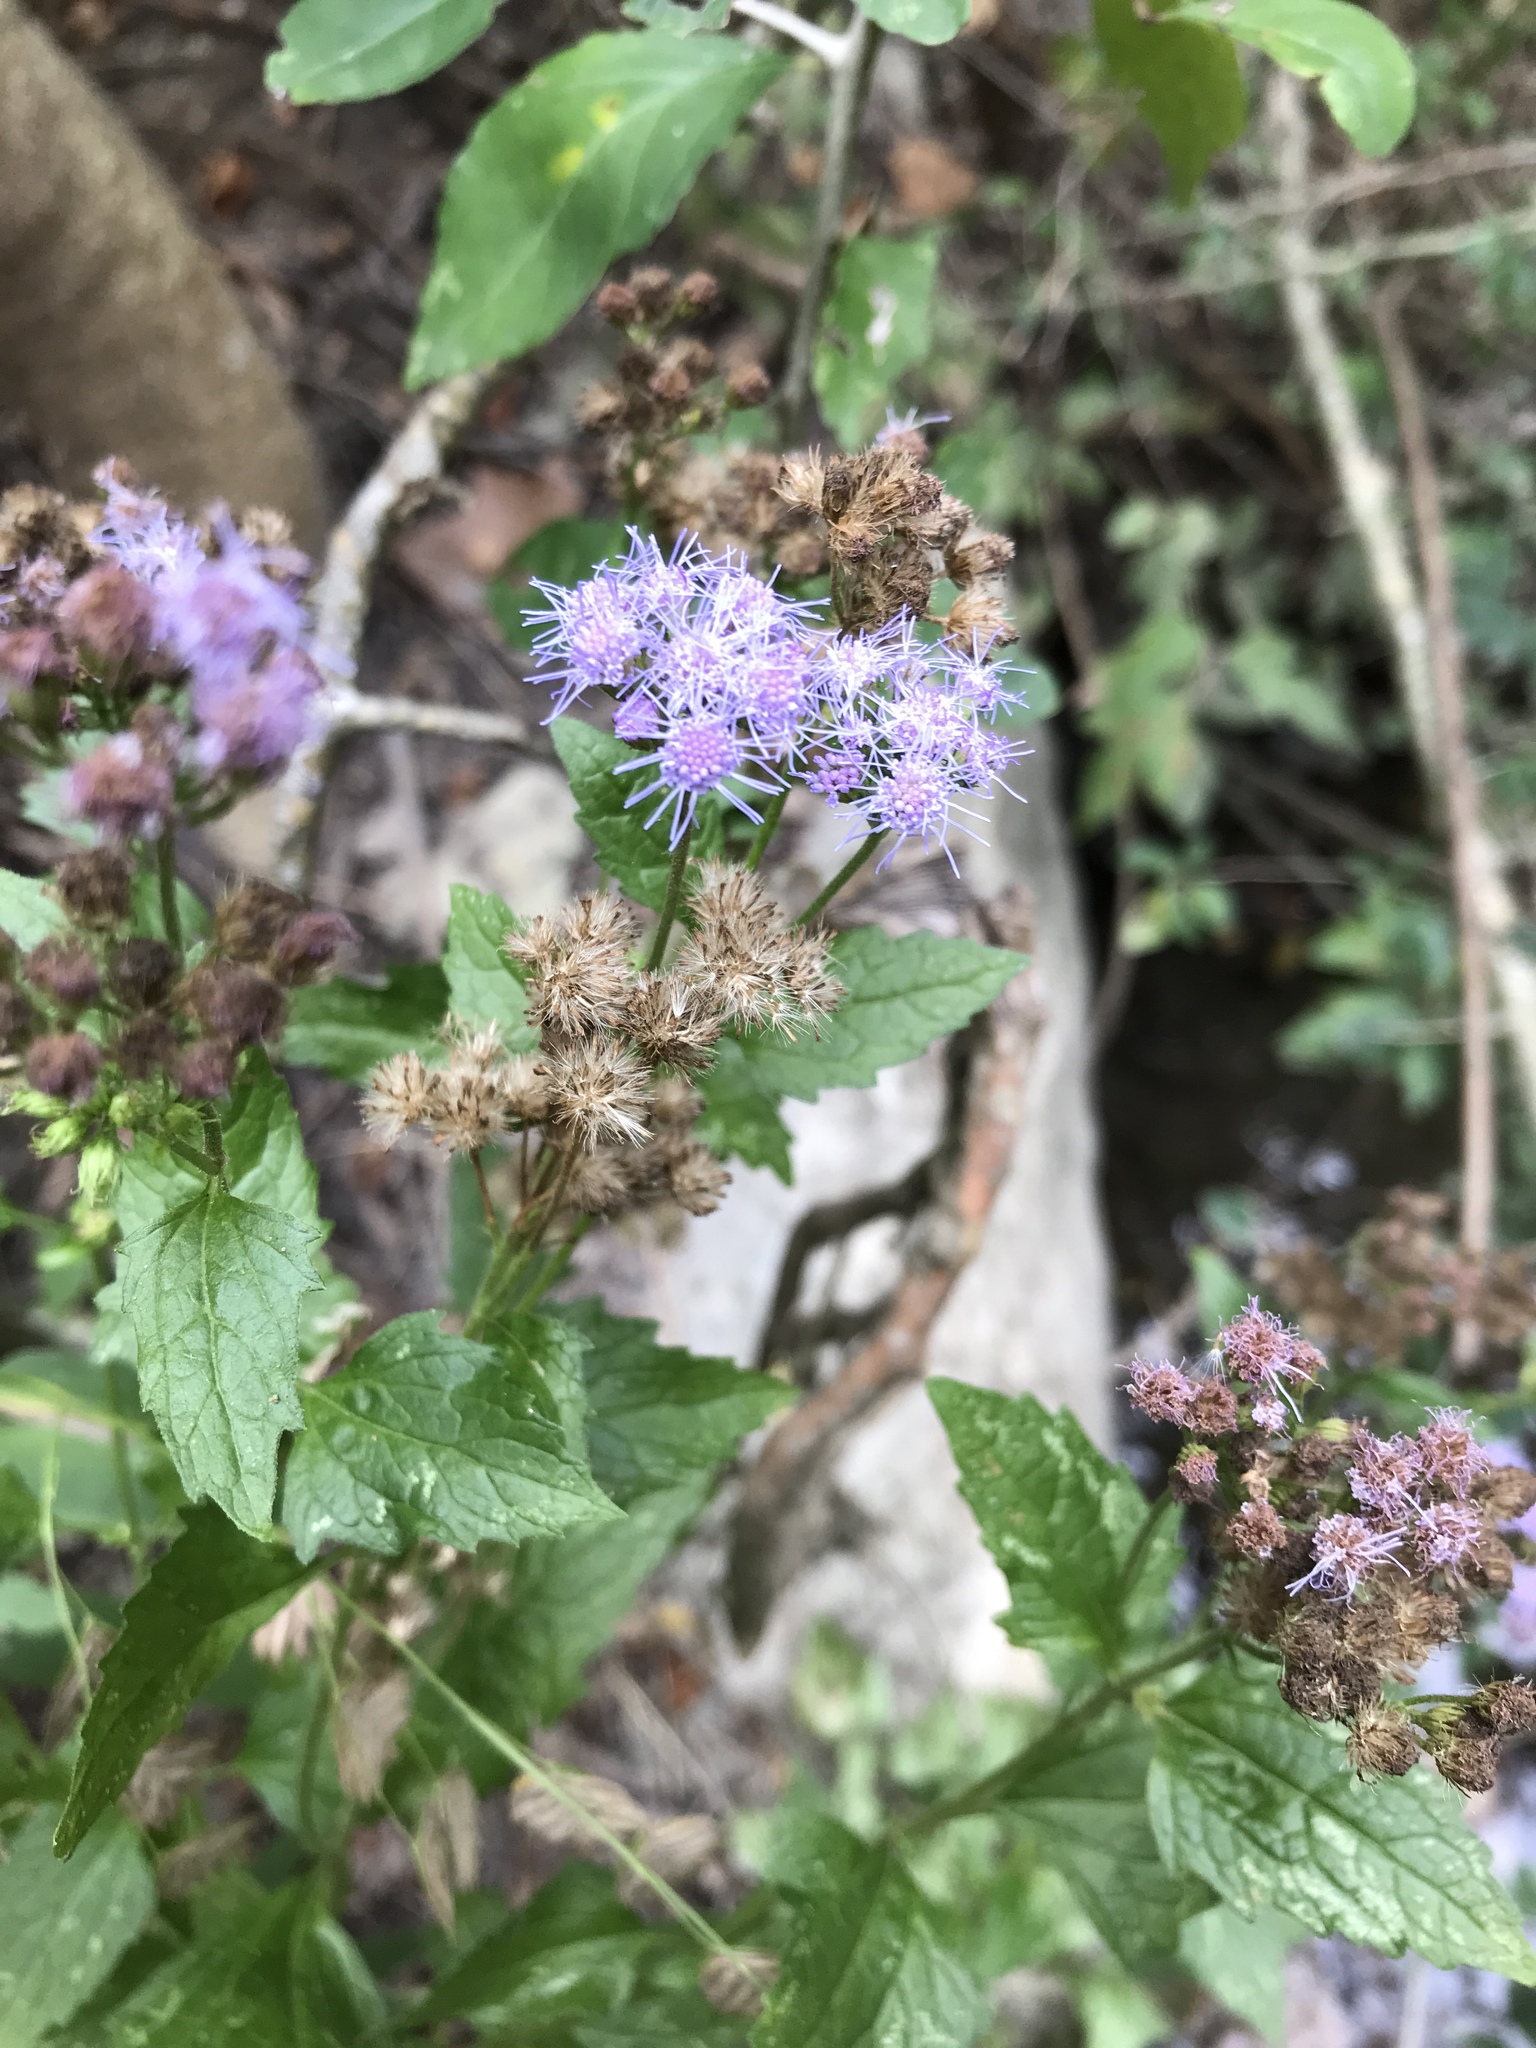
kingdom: Plantae
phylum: Tracheophyta
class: Magnoliopsida
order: Asterales
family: Asteraceae
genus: Conoclinium
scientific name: Conoclinium coelestinum
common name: Blue mistflower
